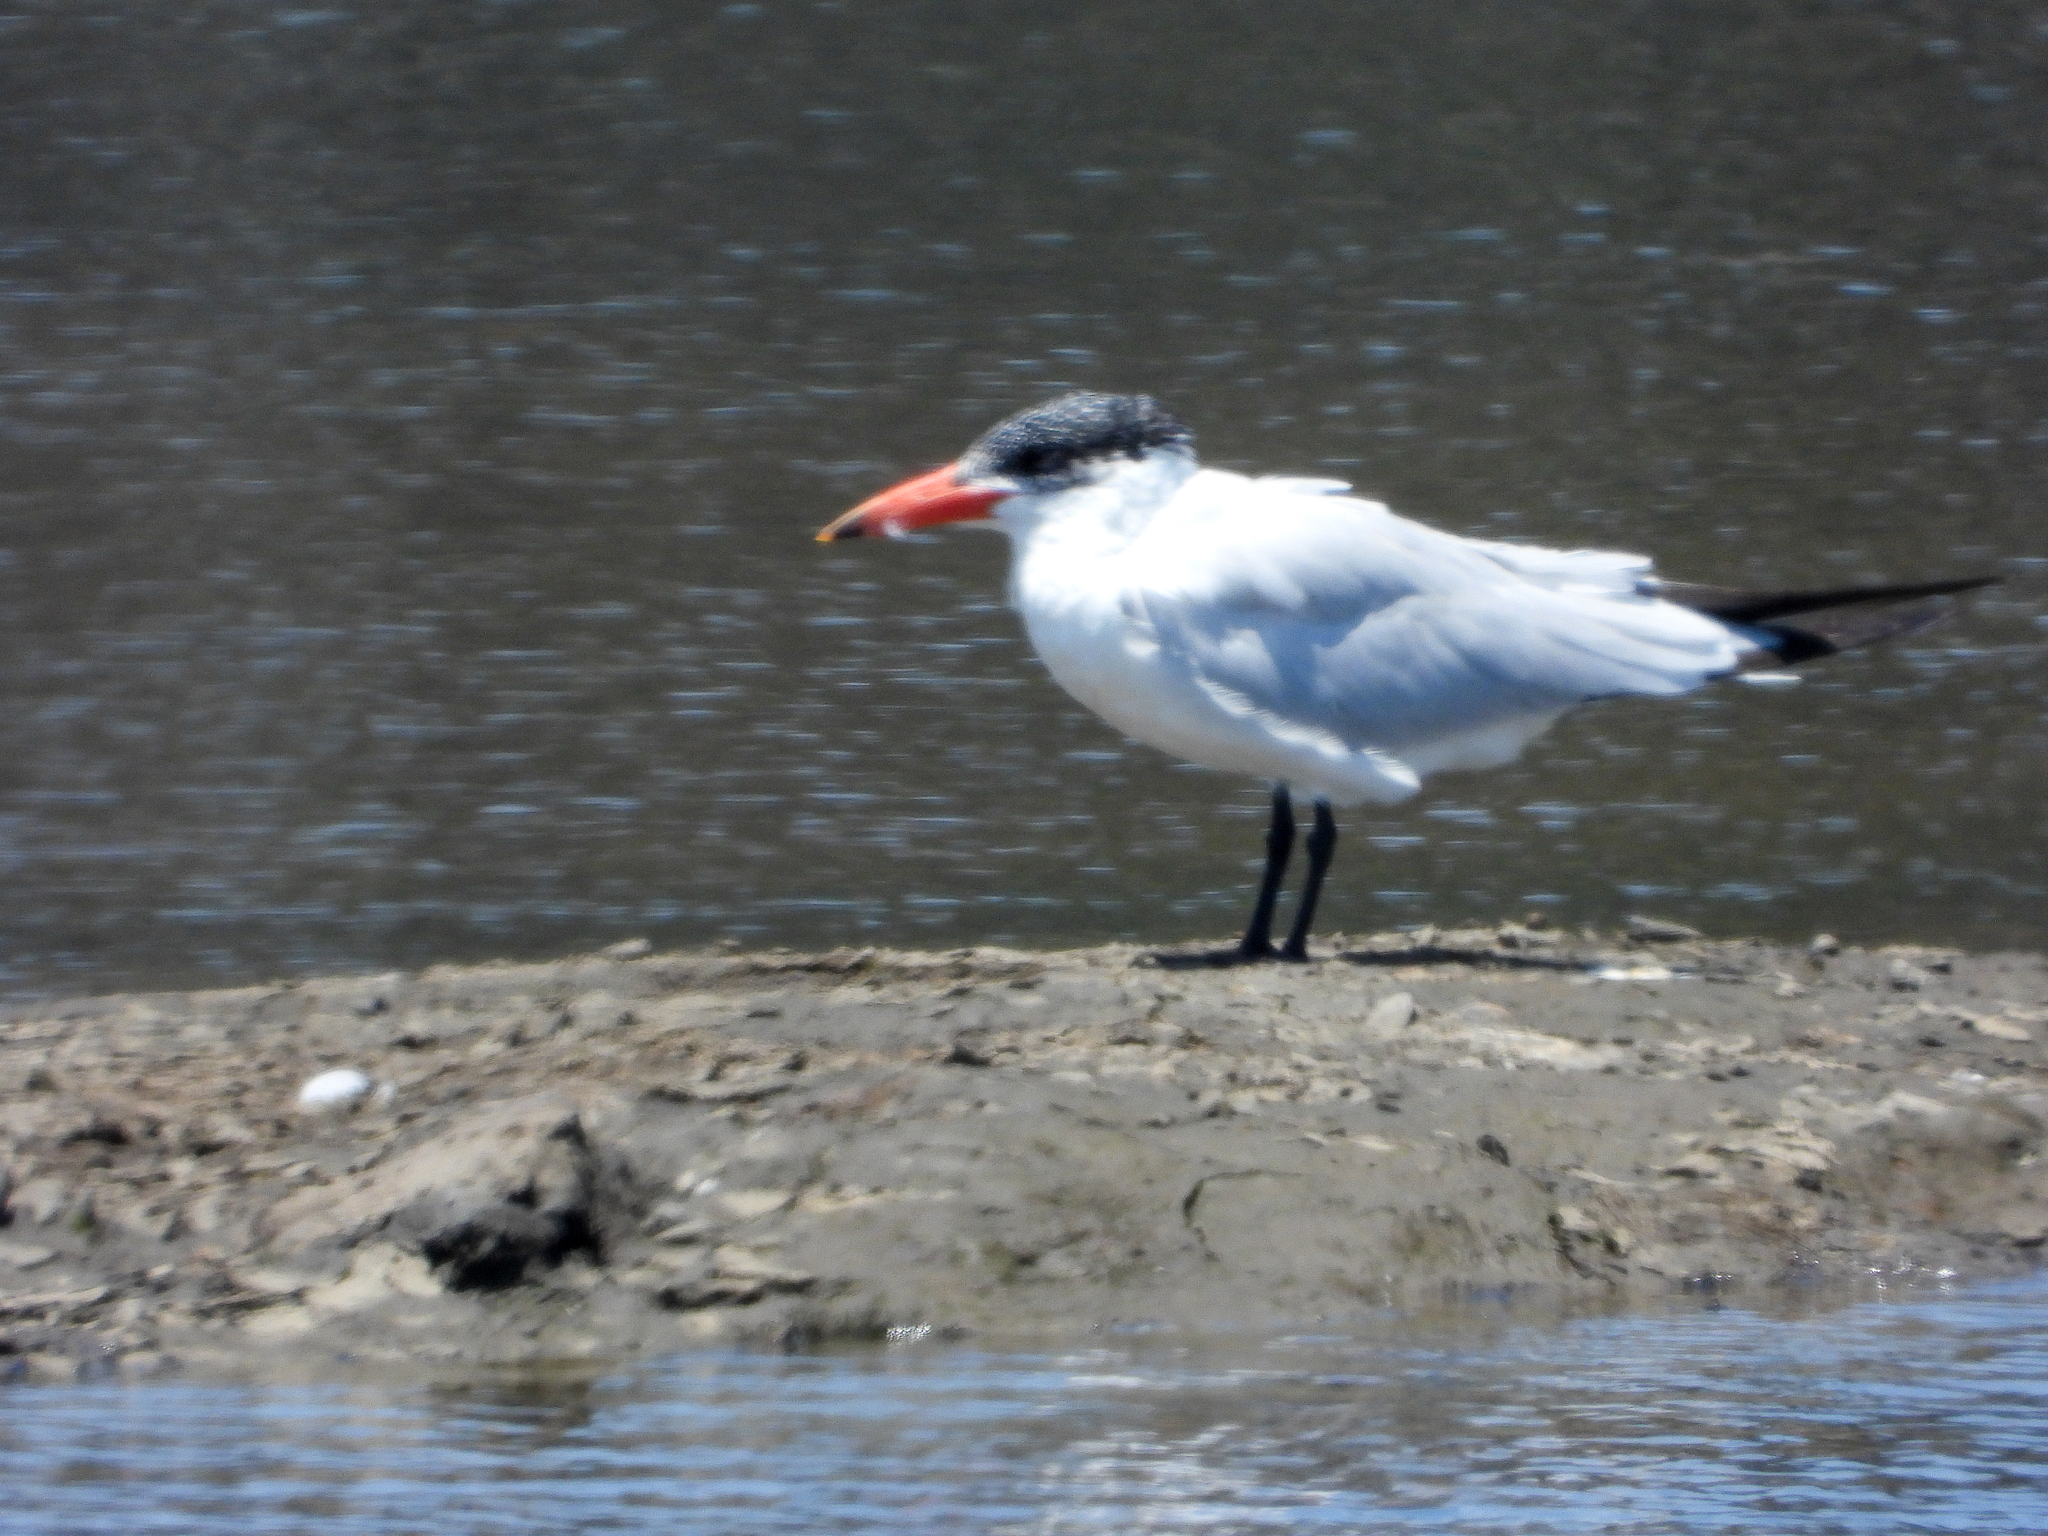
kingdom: Animalia
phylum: Chordata
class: Aves
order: Charadriiformes
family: Laridae
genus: Hydroprogne
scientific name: Hydroprogne caspia
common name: Caspian tern
